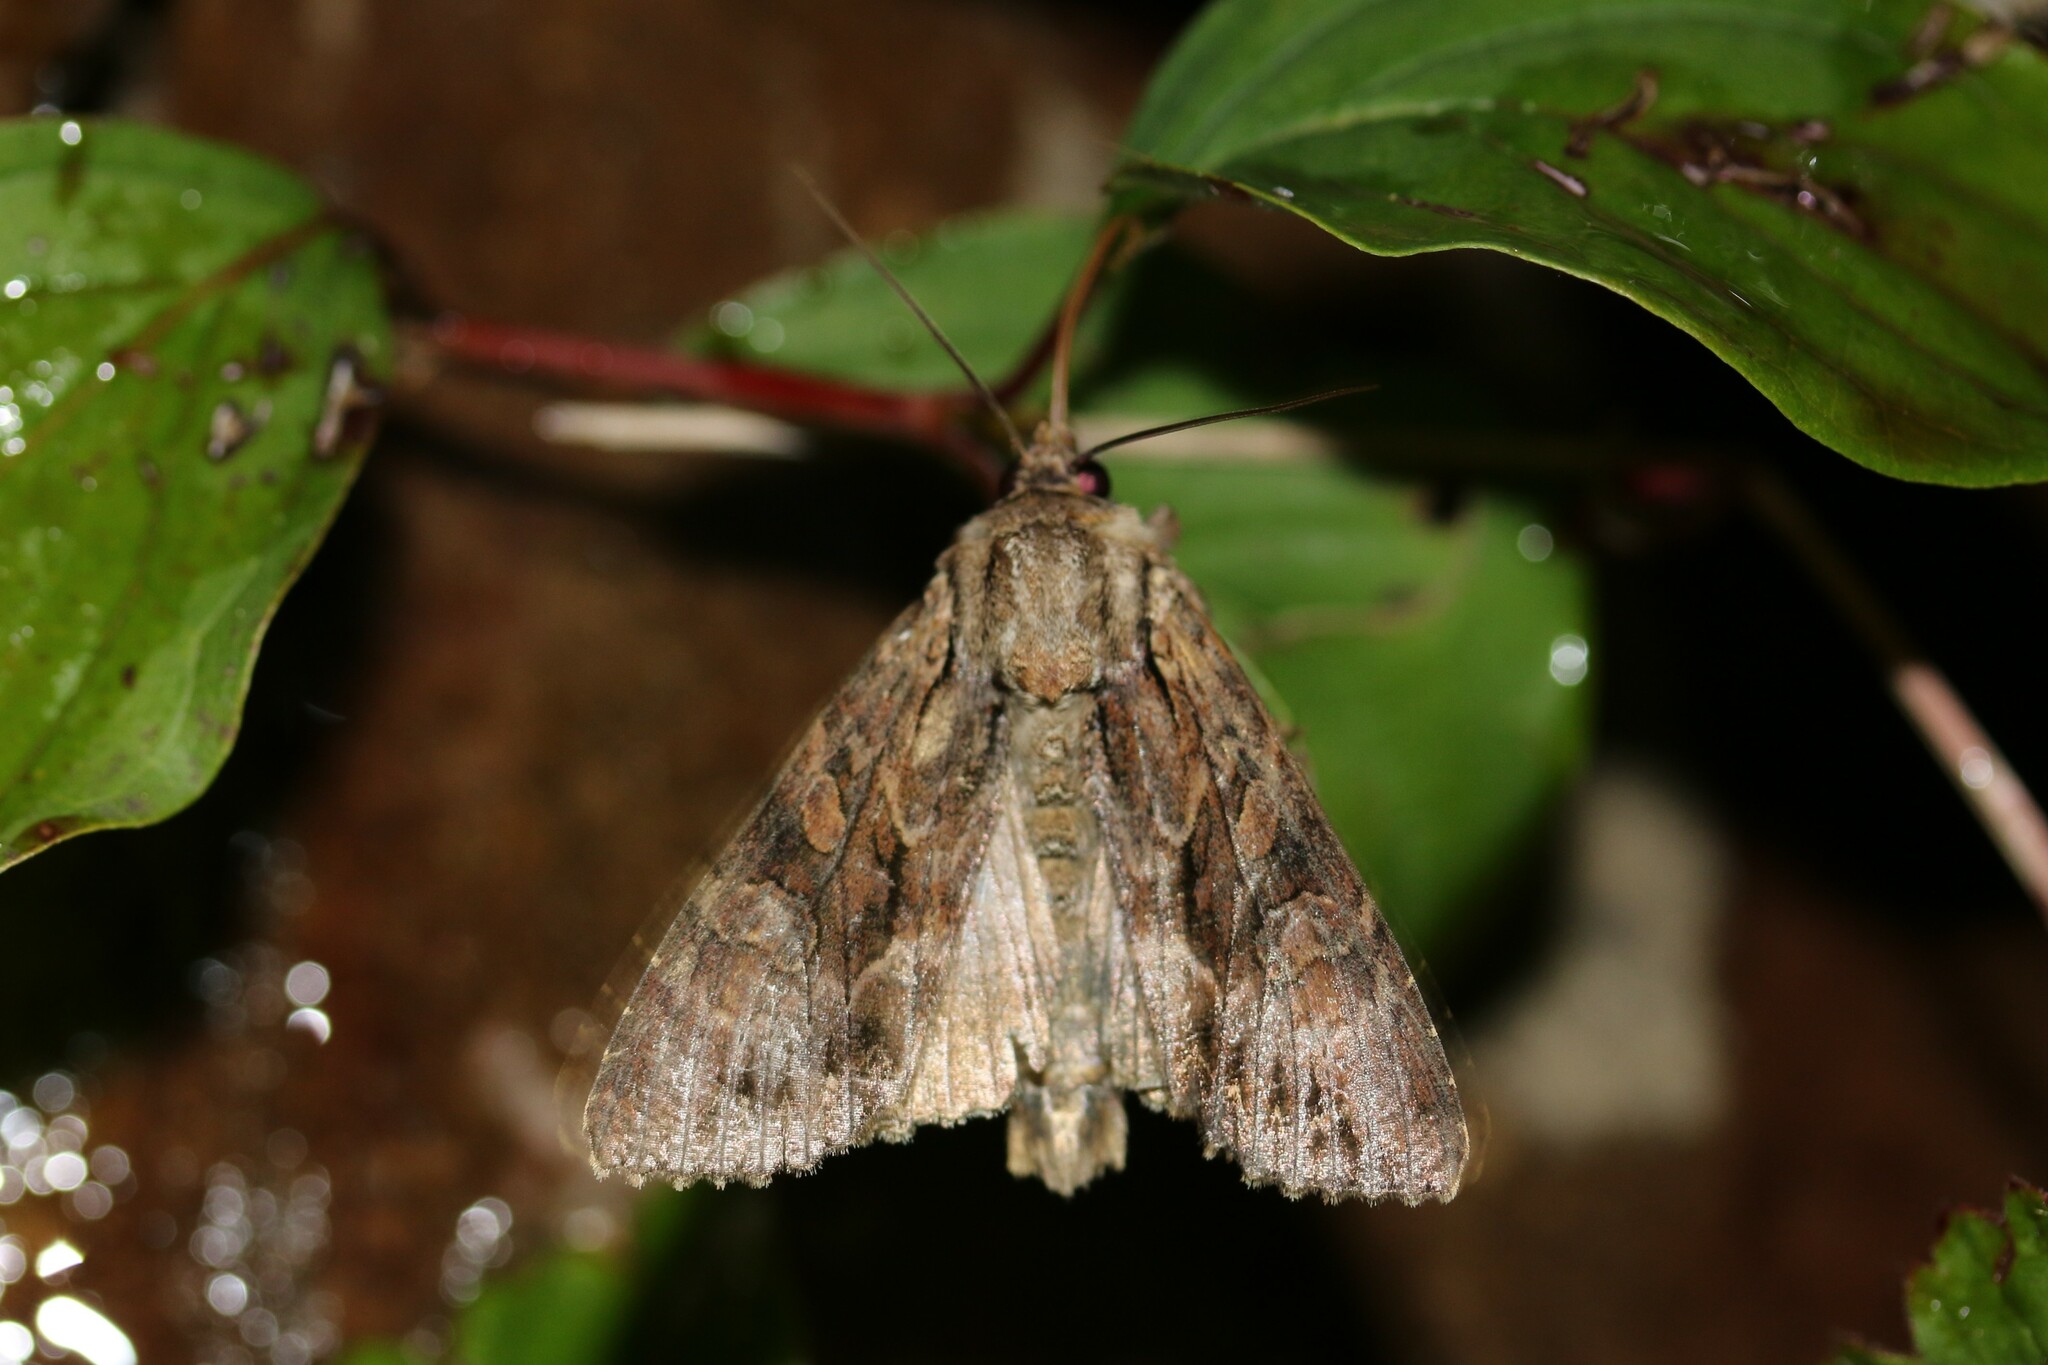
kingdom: Animalia
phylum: Arthropoda
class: Insecta
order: Lepidoptera
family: Noctuidae
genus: Apamea
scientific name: Apamea monoglypha
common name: Dark arches
